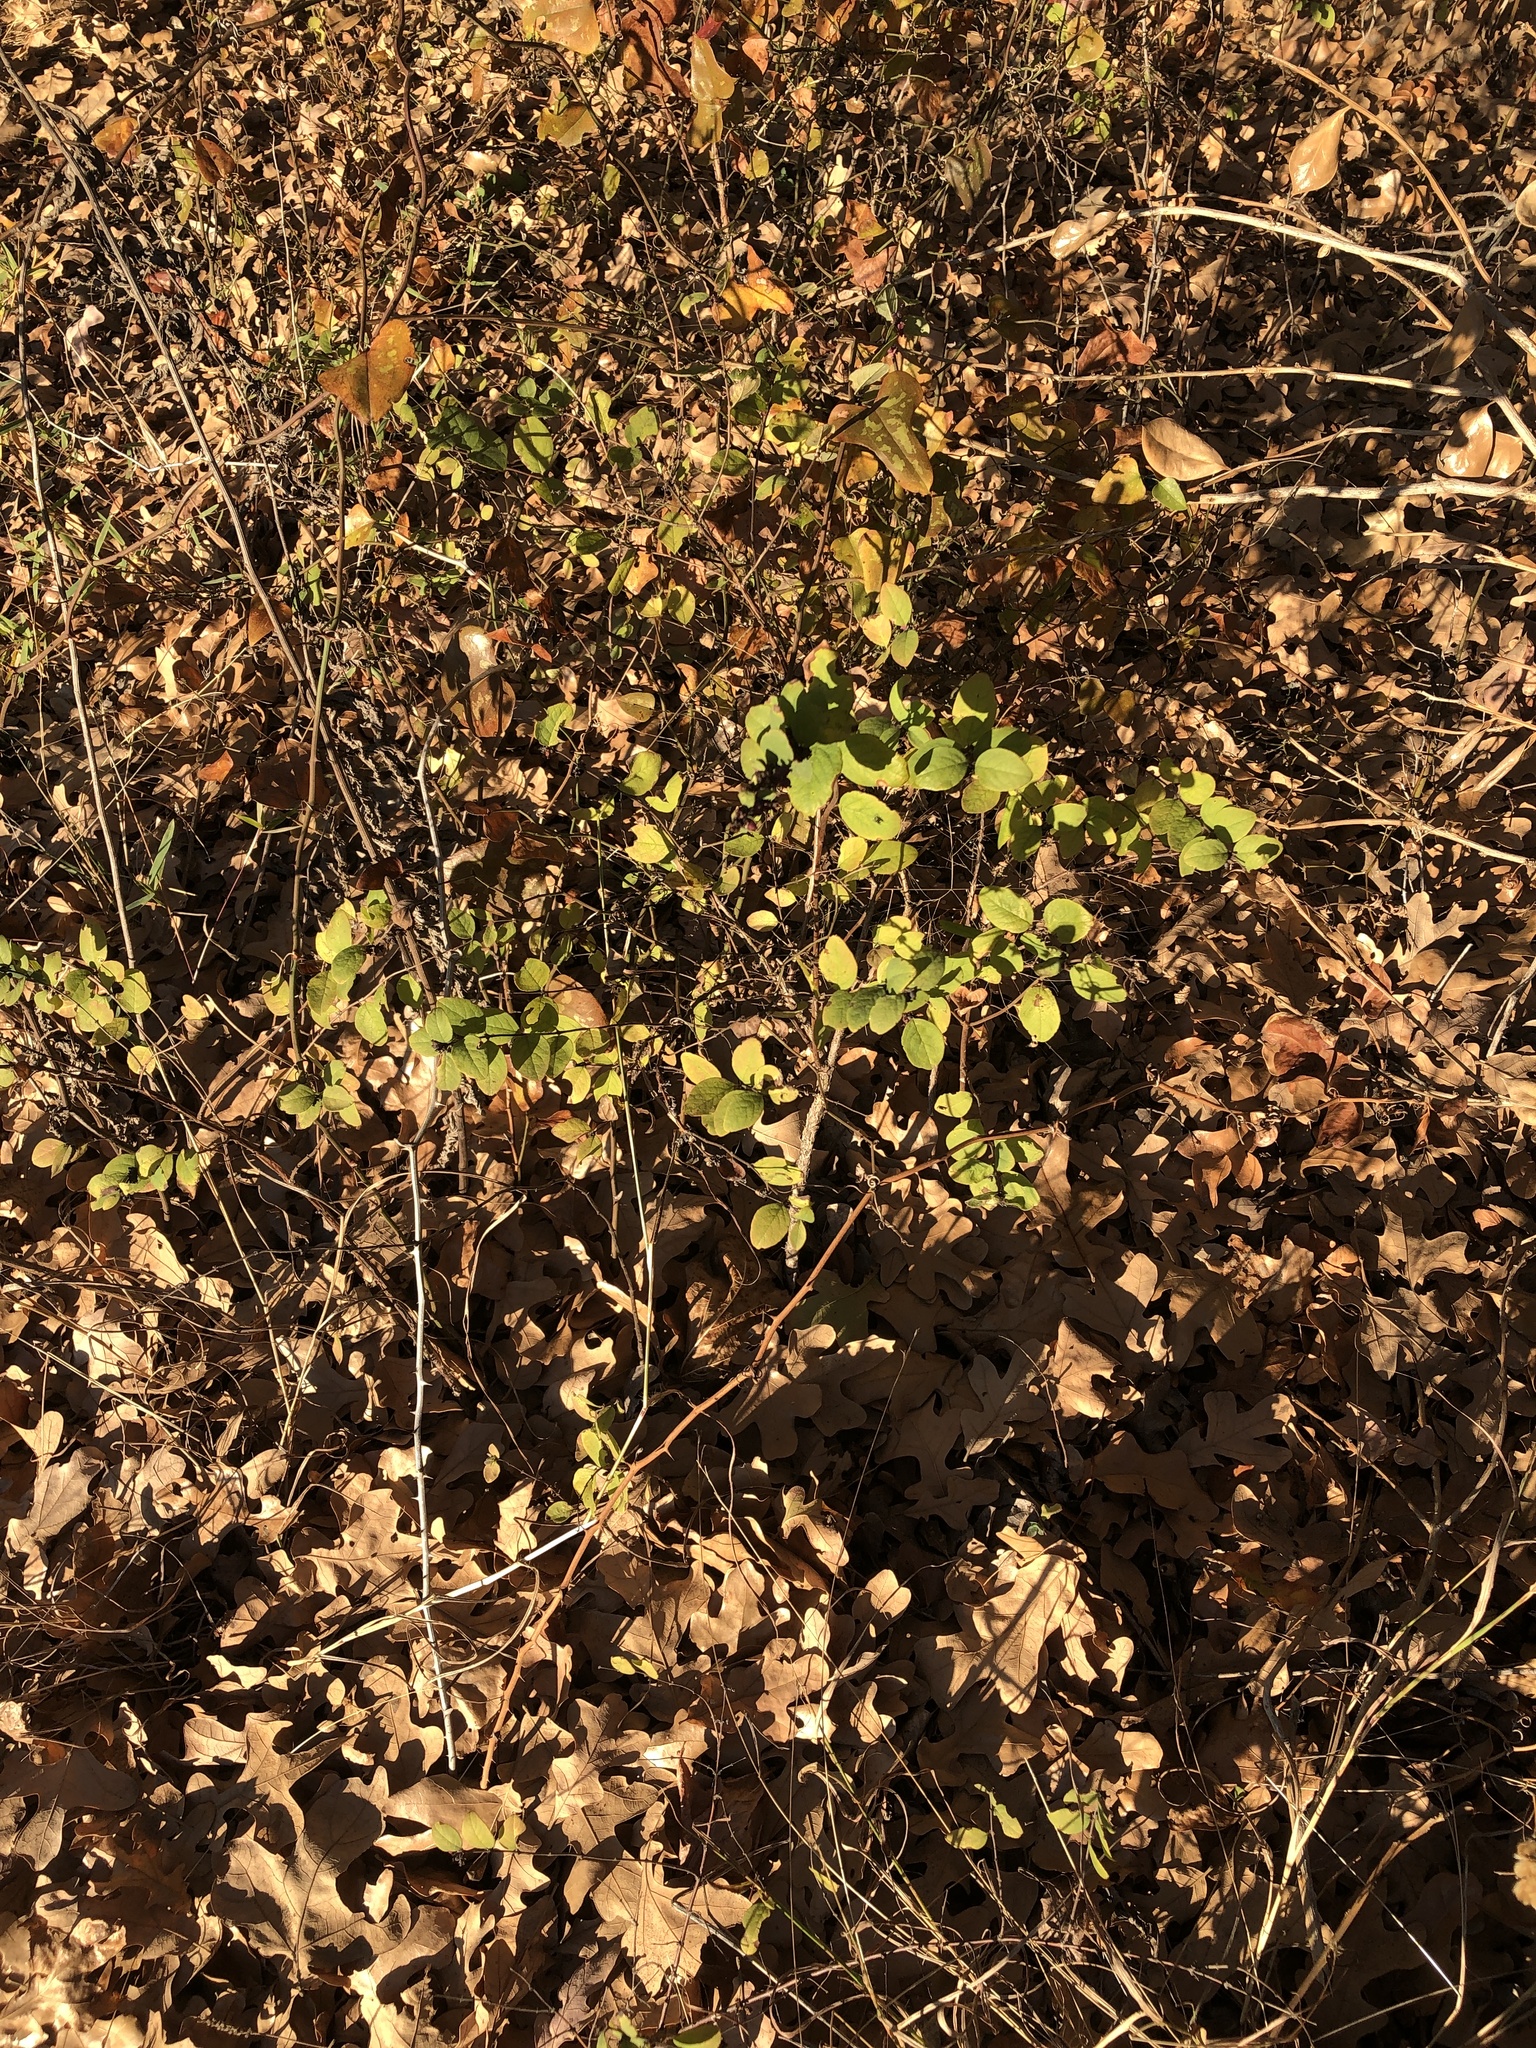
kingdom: Plantae
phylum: Tracheophyta
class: Magnoliopsida
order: Dipsacales
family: Caprifoliaceae
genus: Symphoricarpos
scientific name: Symphoricarpos orbiculatus
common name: Coralberry
